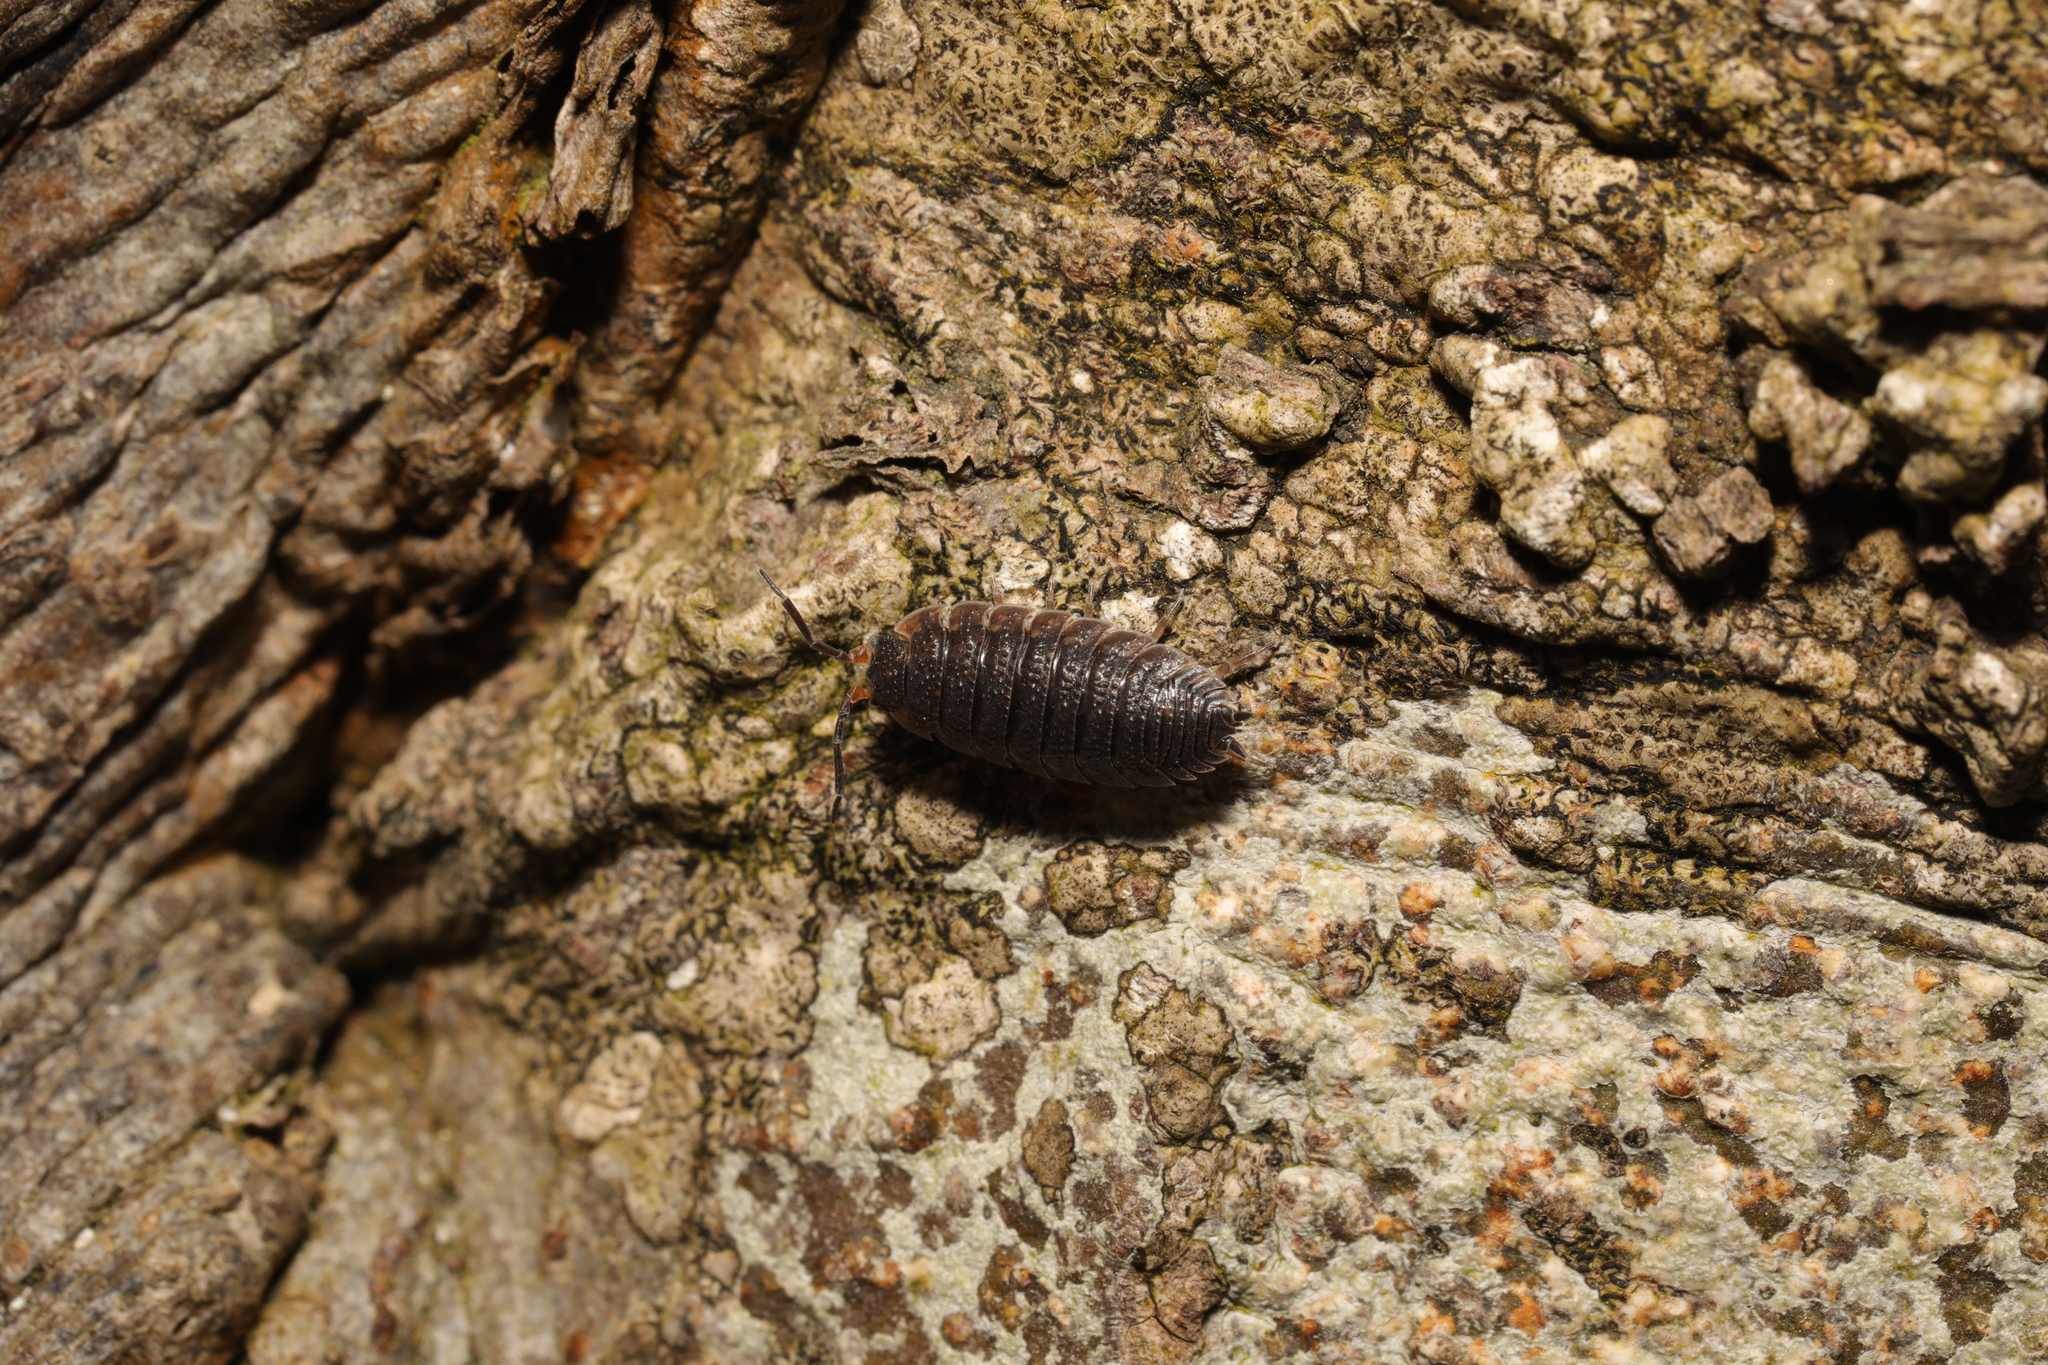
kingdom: Animalia
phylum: Arthropoda
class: Malacostraca
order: Isopoda
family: Porcellionidae
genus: Porcellio
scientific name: Porcellio scaber
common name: Common rough woodlouse
